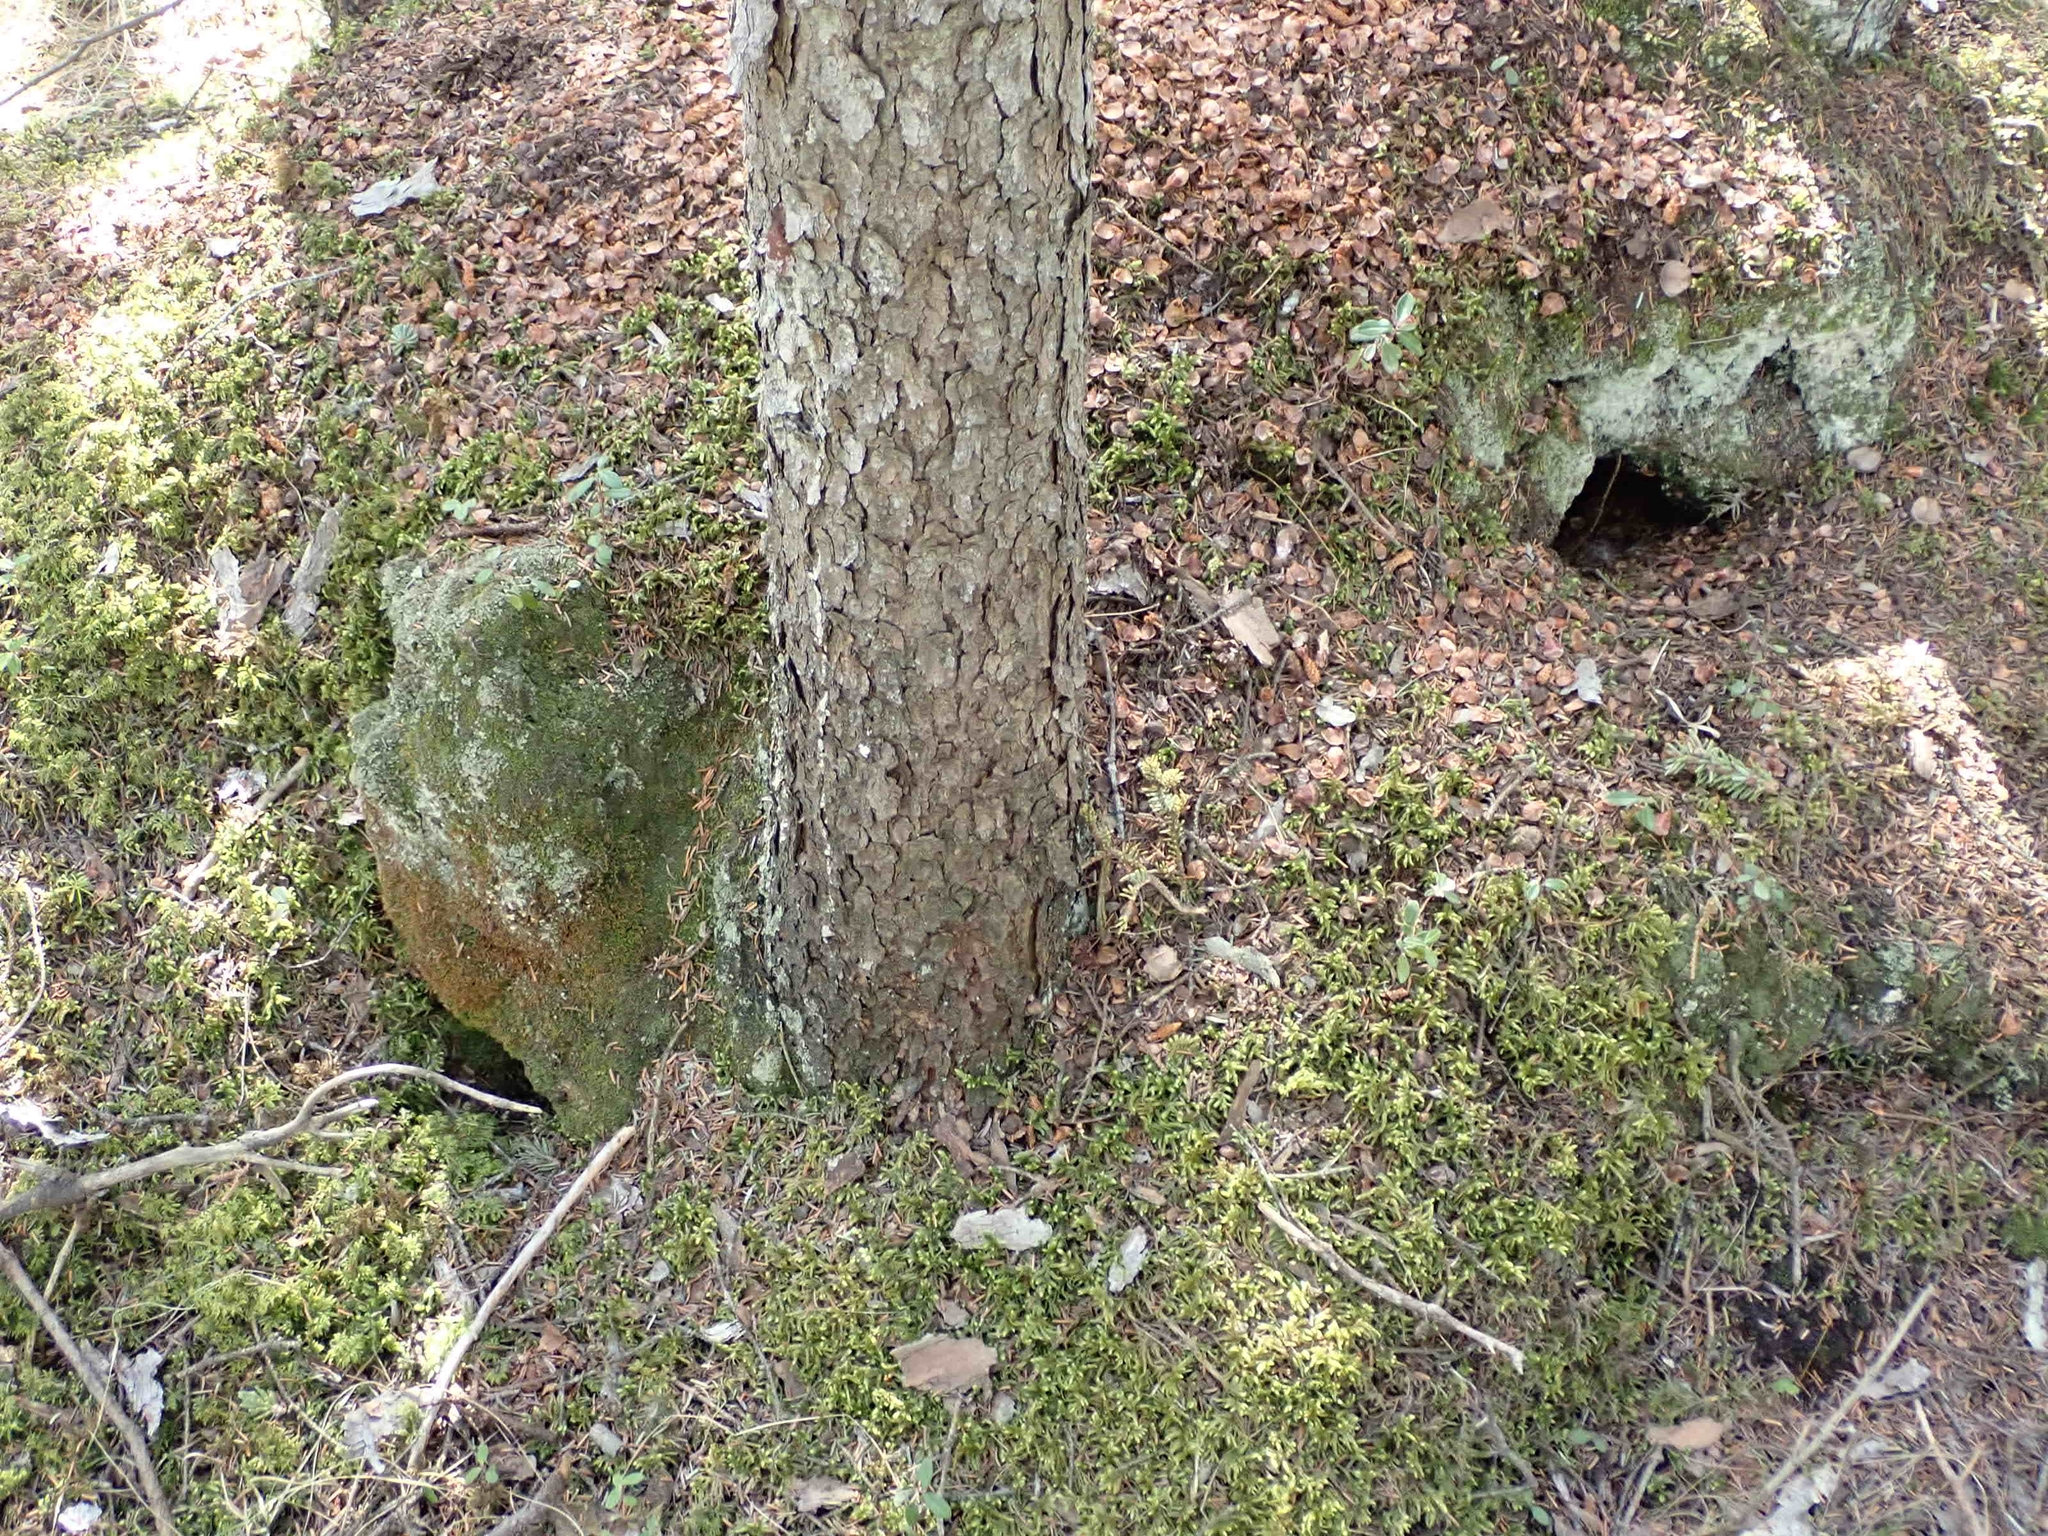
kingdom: Animalia
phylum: Chordata
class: Mammalia
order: Rodentia
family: Sciuridae
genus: Tamiasciurus
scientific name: Tamiasciurus hudsonicus
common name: Red squirrel
